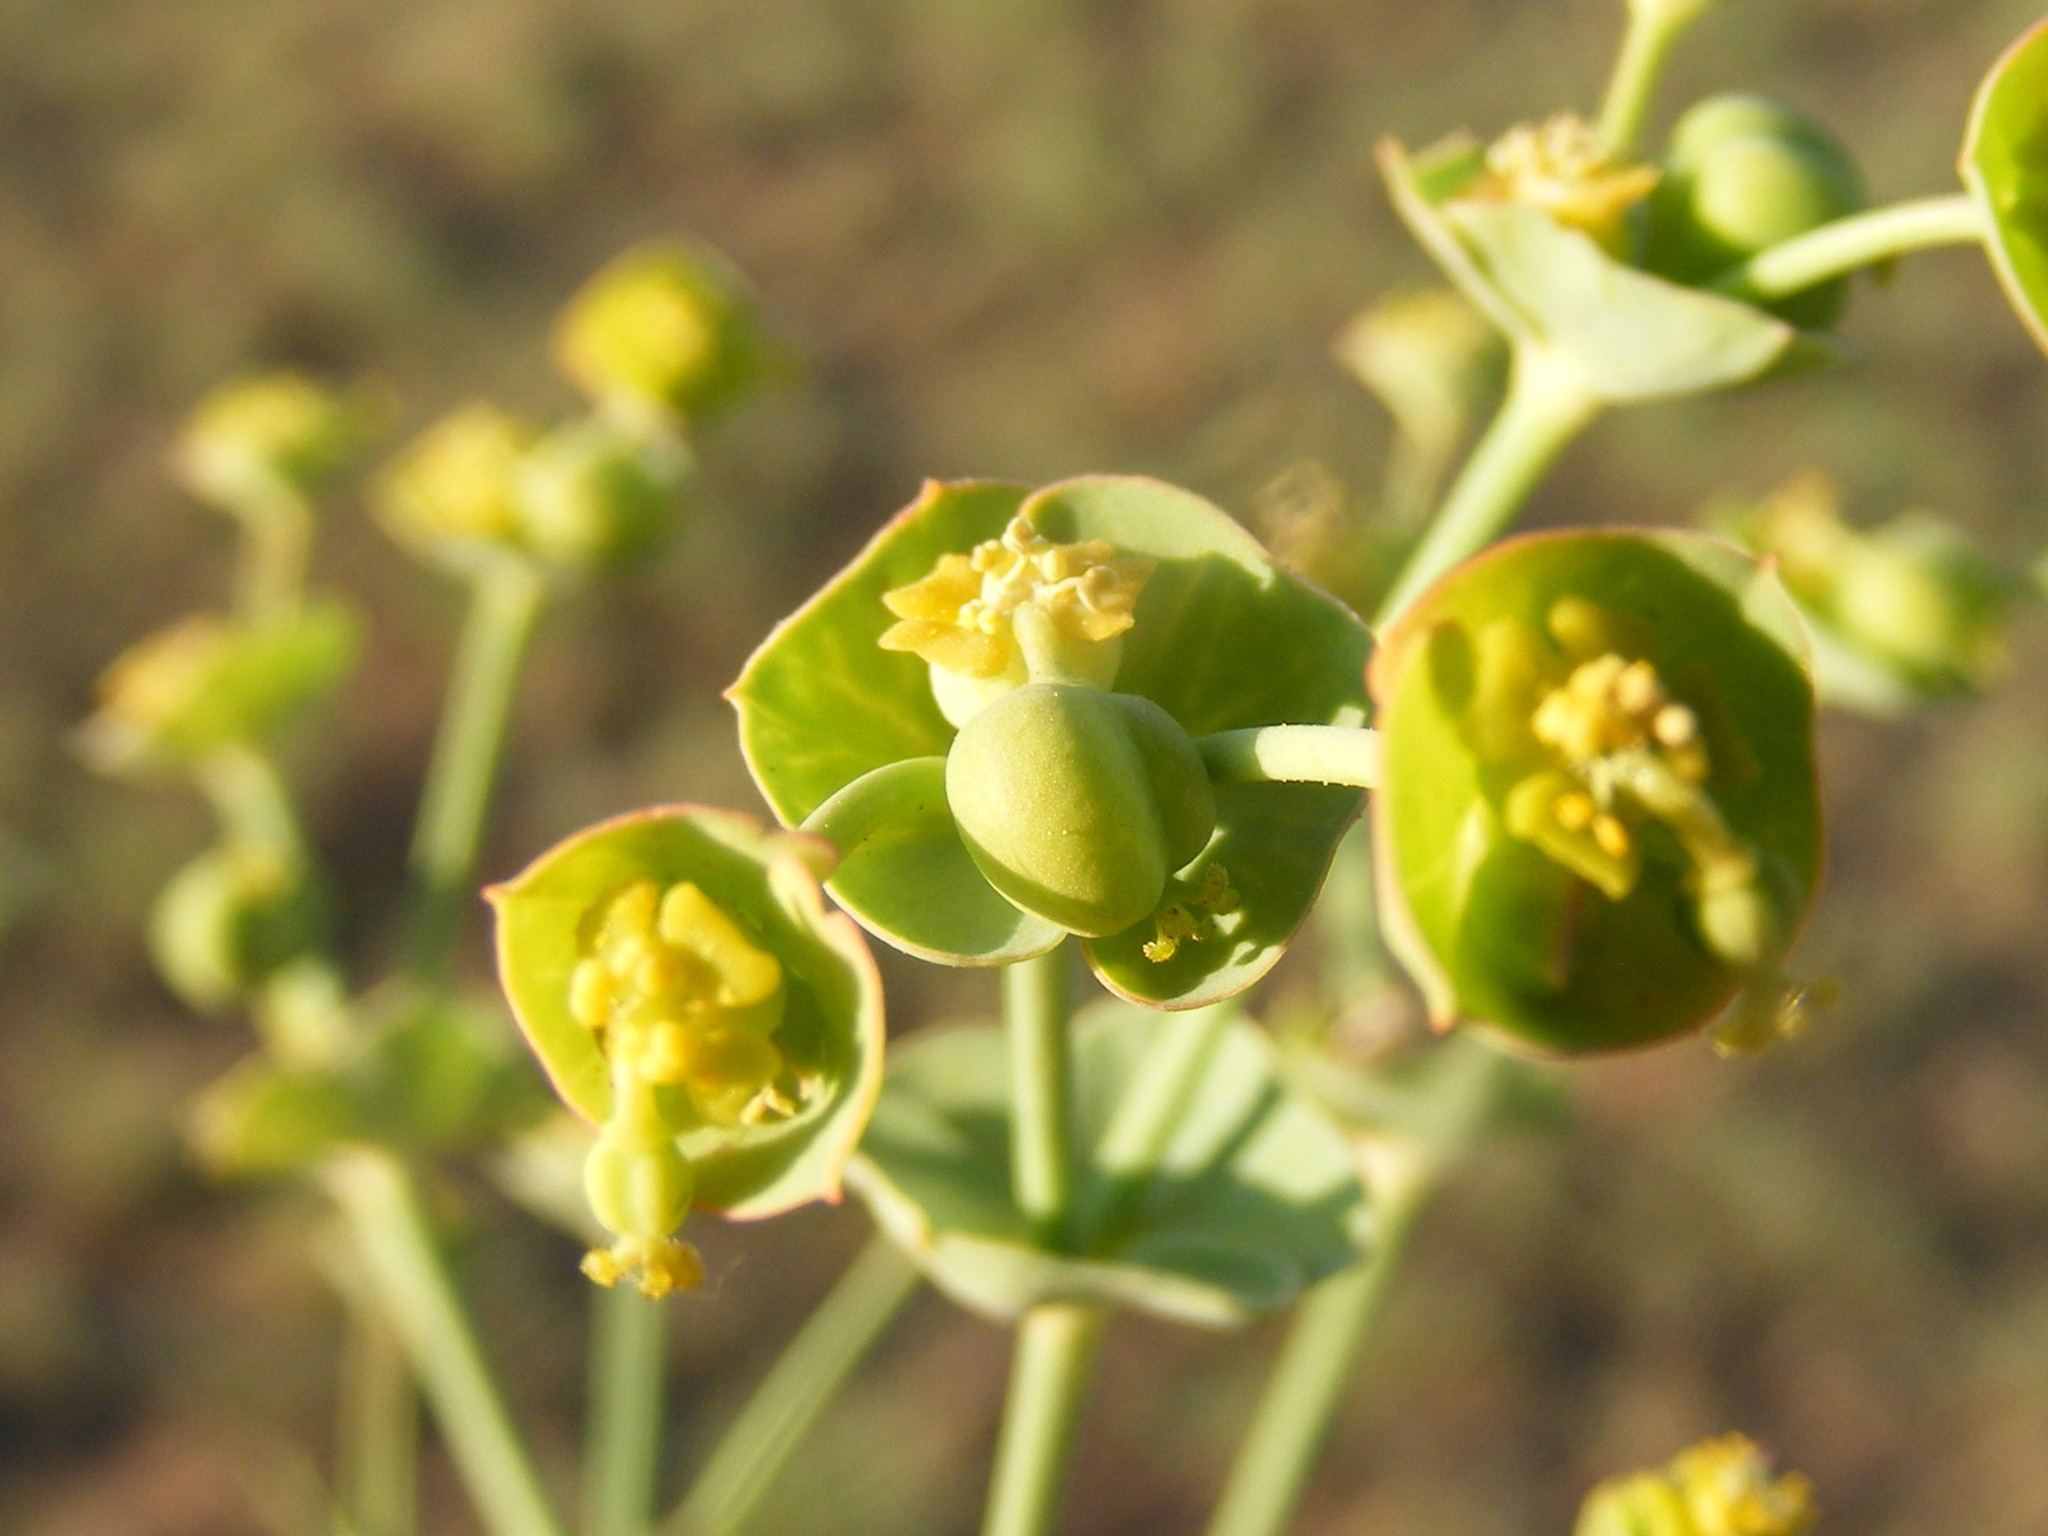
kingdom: Plantae
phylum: Tracheophyta
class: Magnoliopsida
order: Malpighiales
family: Euphorbiaceae
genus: Euphorbia
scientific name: Euphorbia striata
